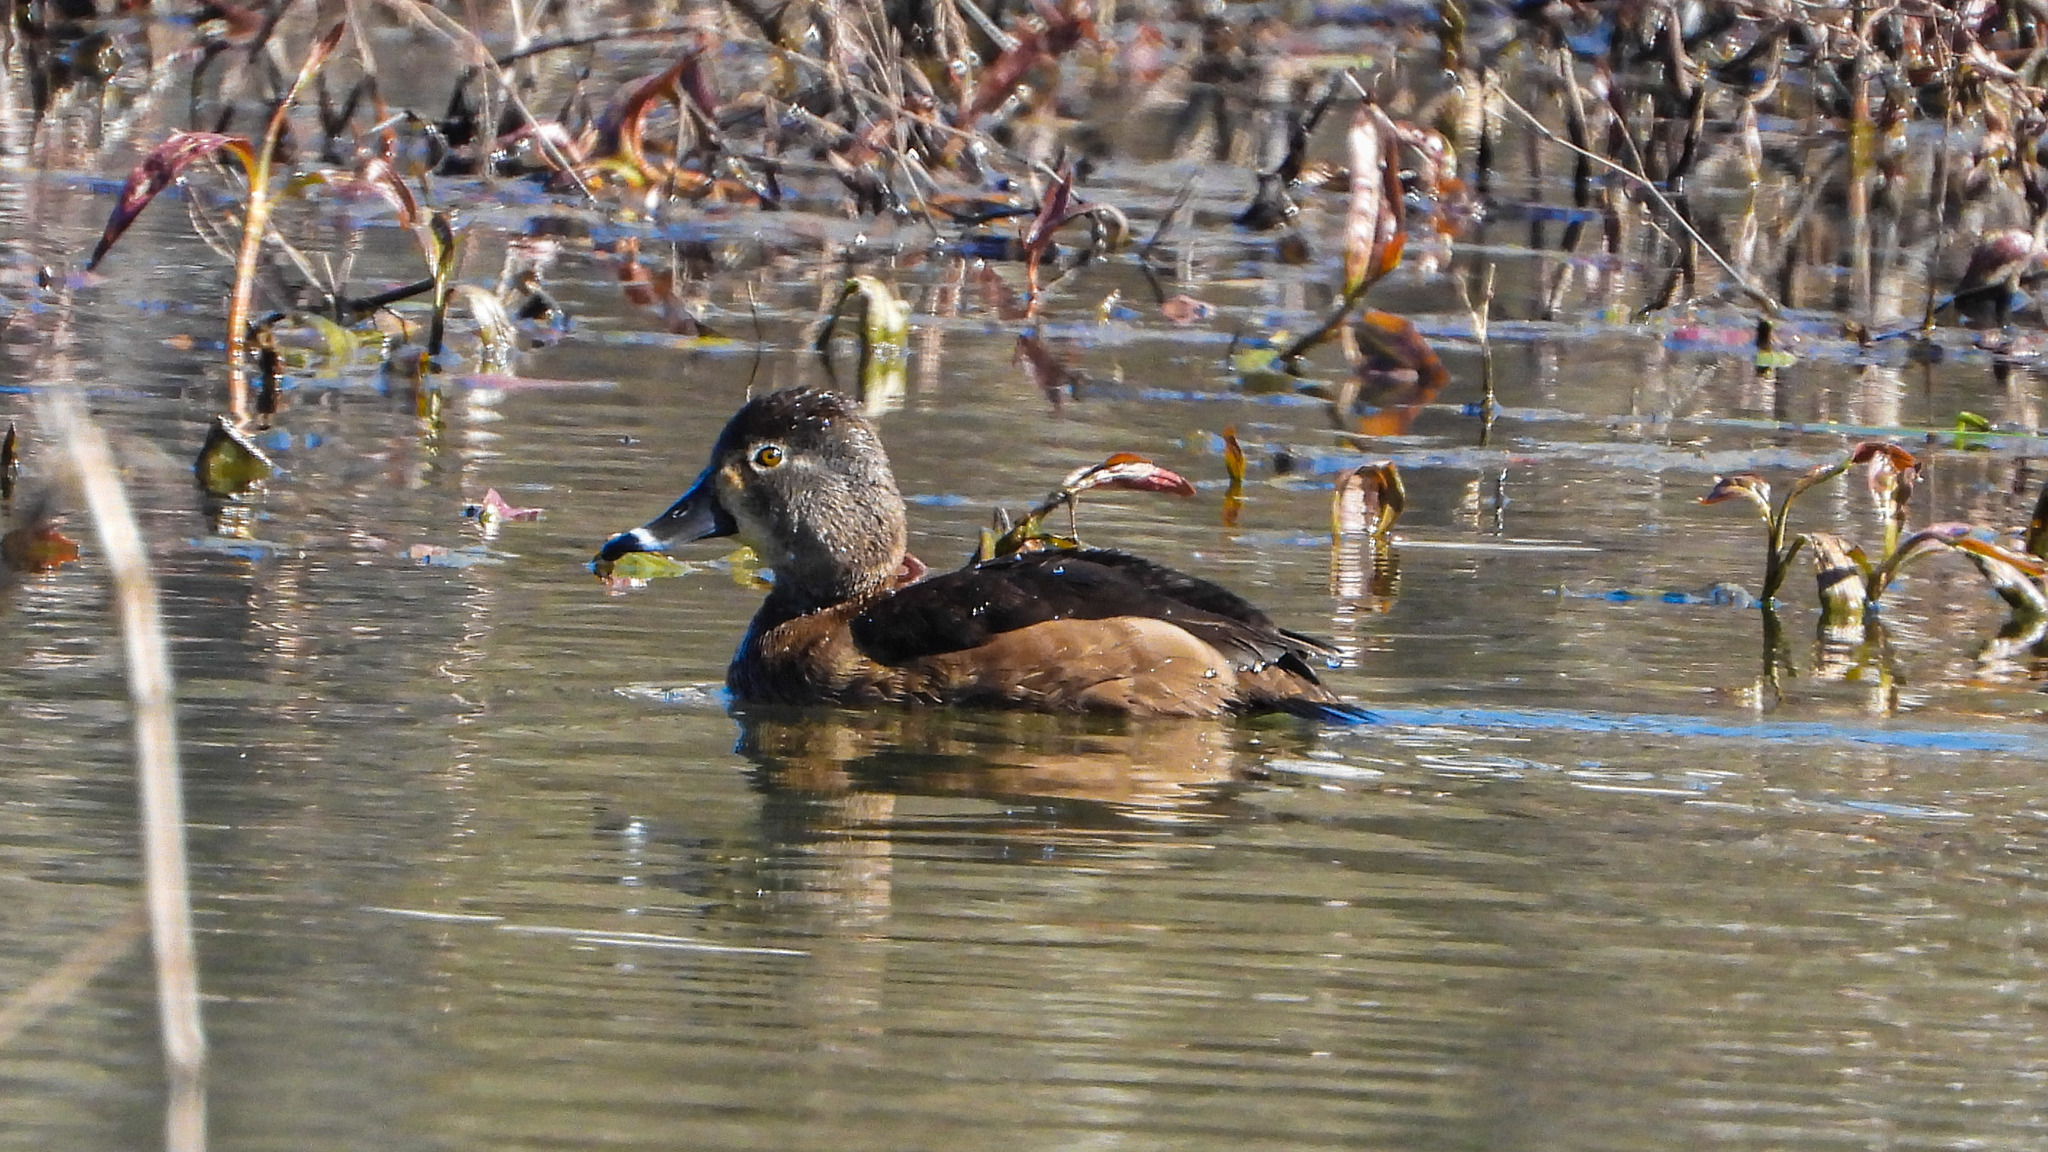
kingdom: Animalia
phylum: Chordata
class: Aves
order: Anseriformes
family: Anatidae
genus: Aythya
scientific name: Aythya collaris
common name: Ring-necked duck
